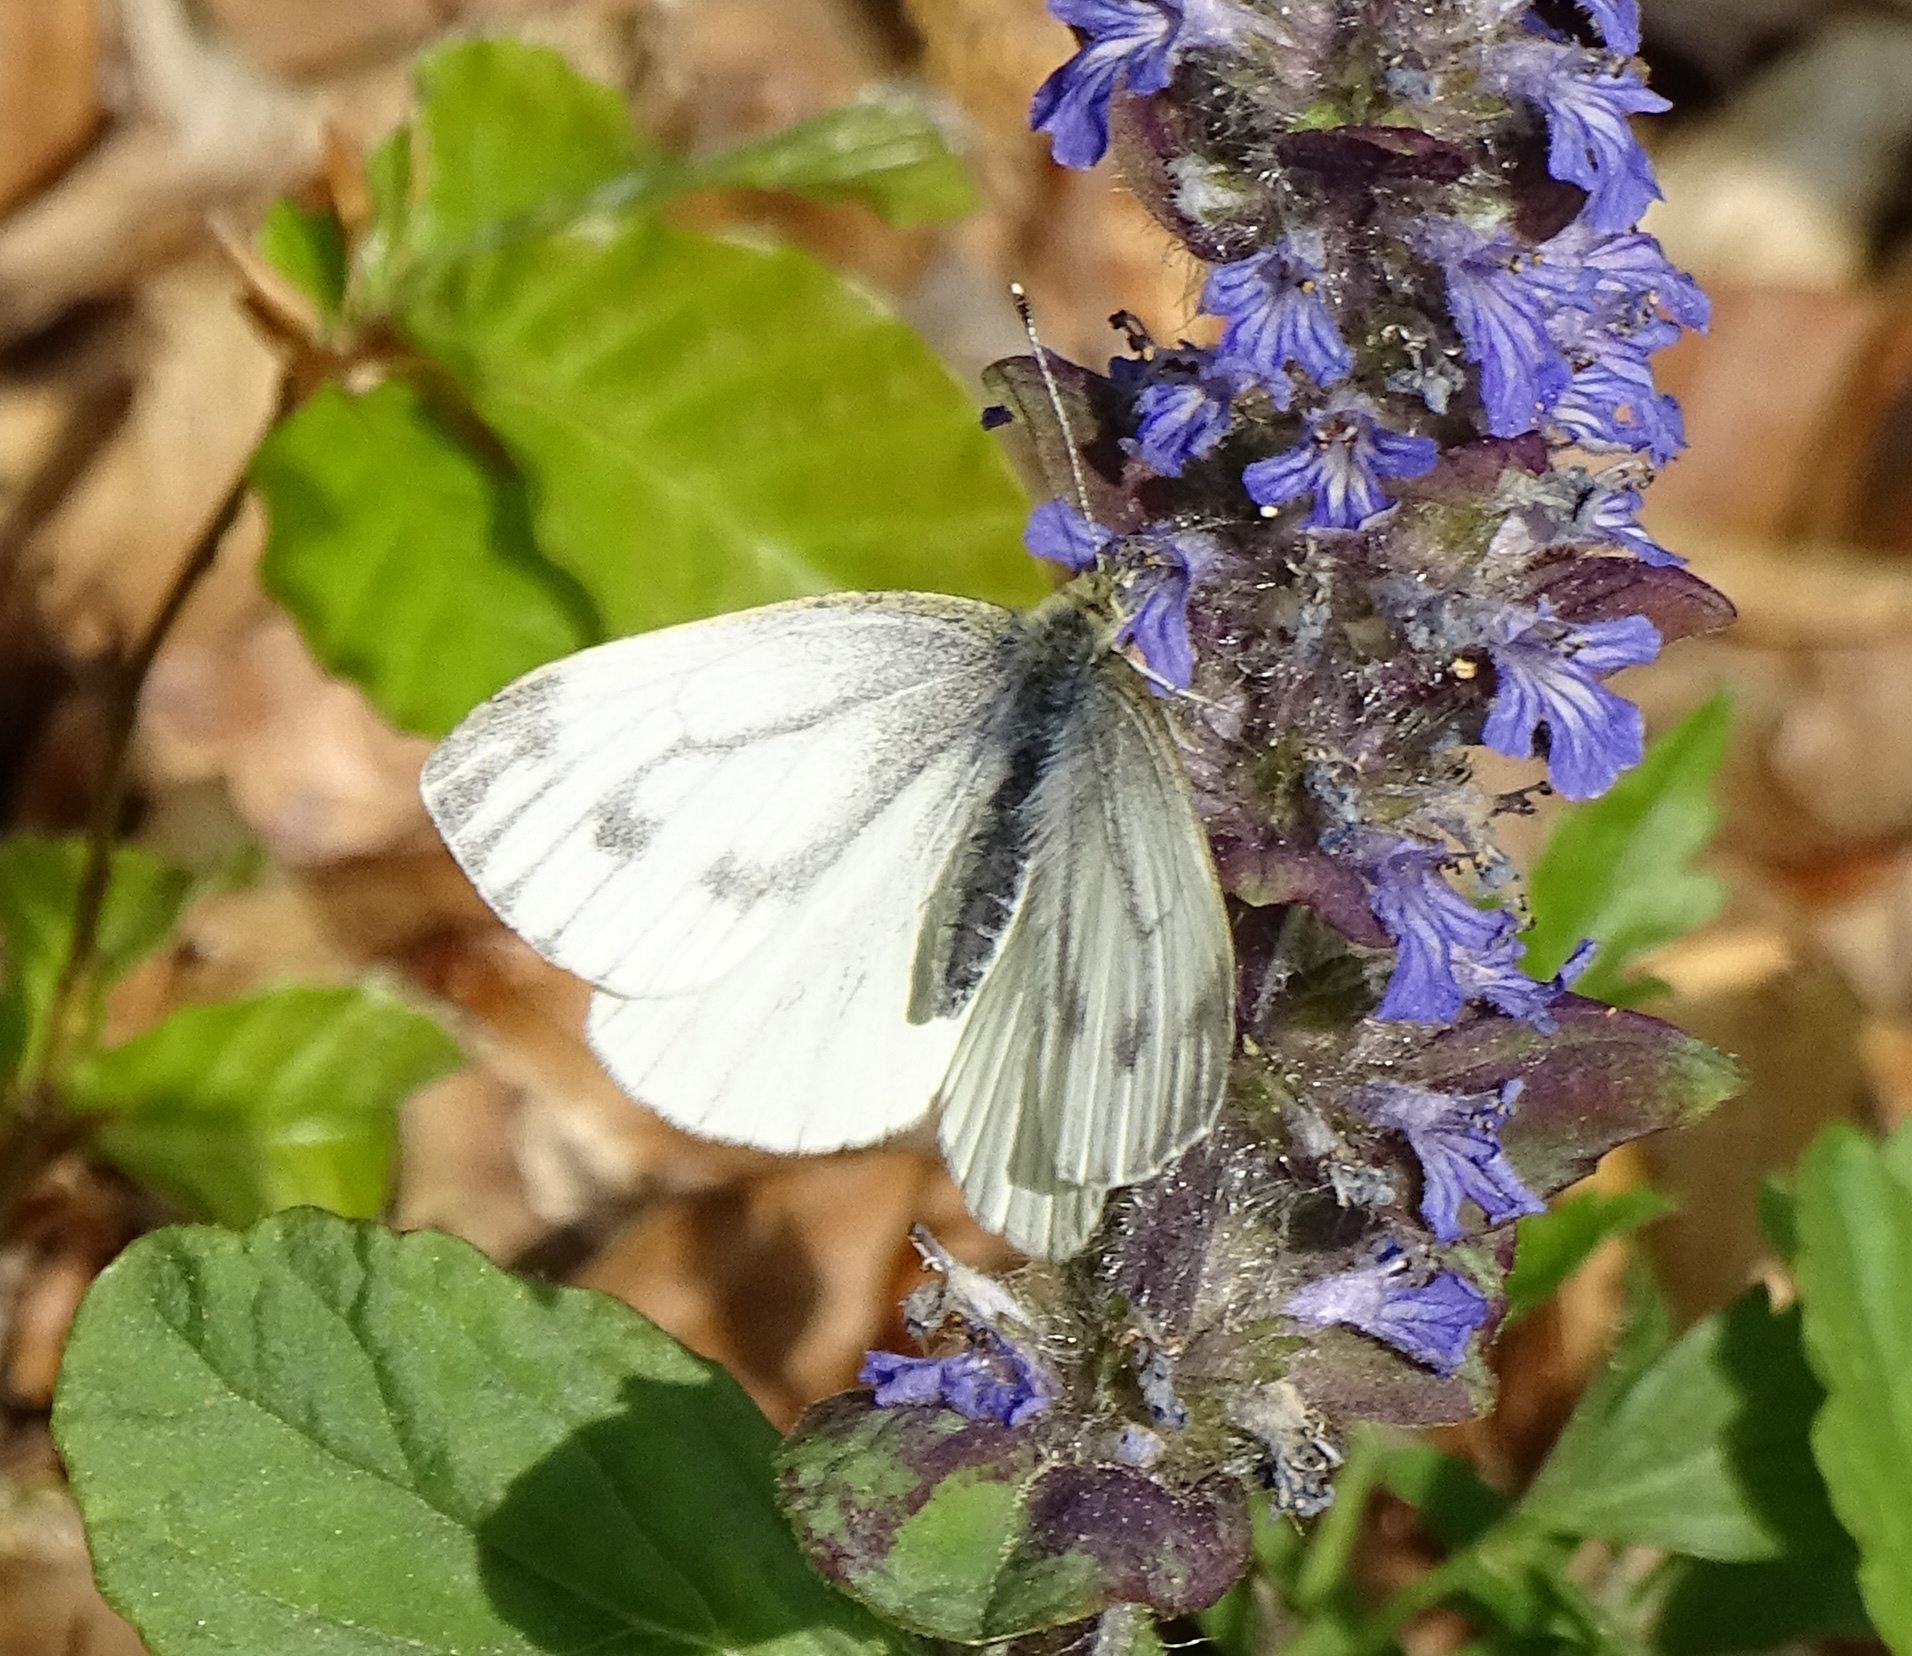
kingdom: Animalia
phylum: Arthropoda
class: Insecta
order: Lepidoptera
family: Pieridae
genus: Pieris
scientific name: Pieris napi
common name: Green-veined white
